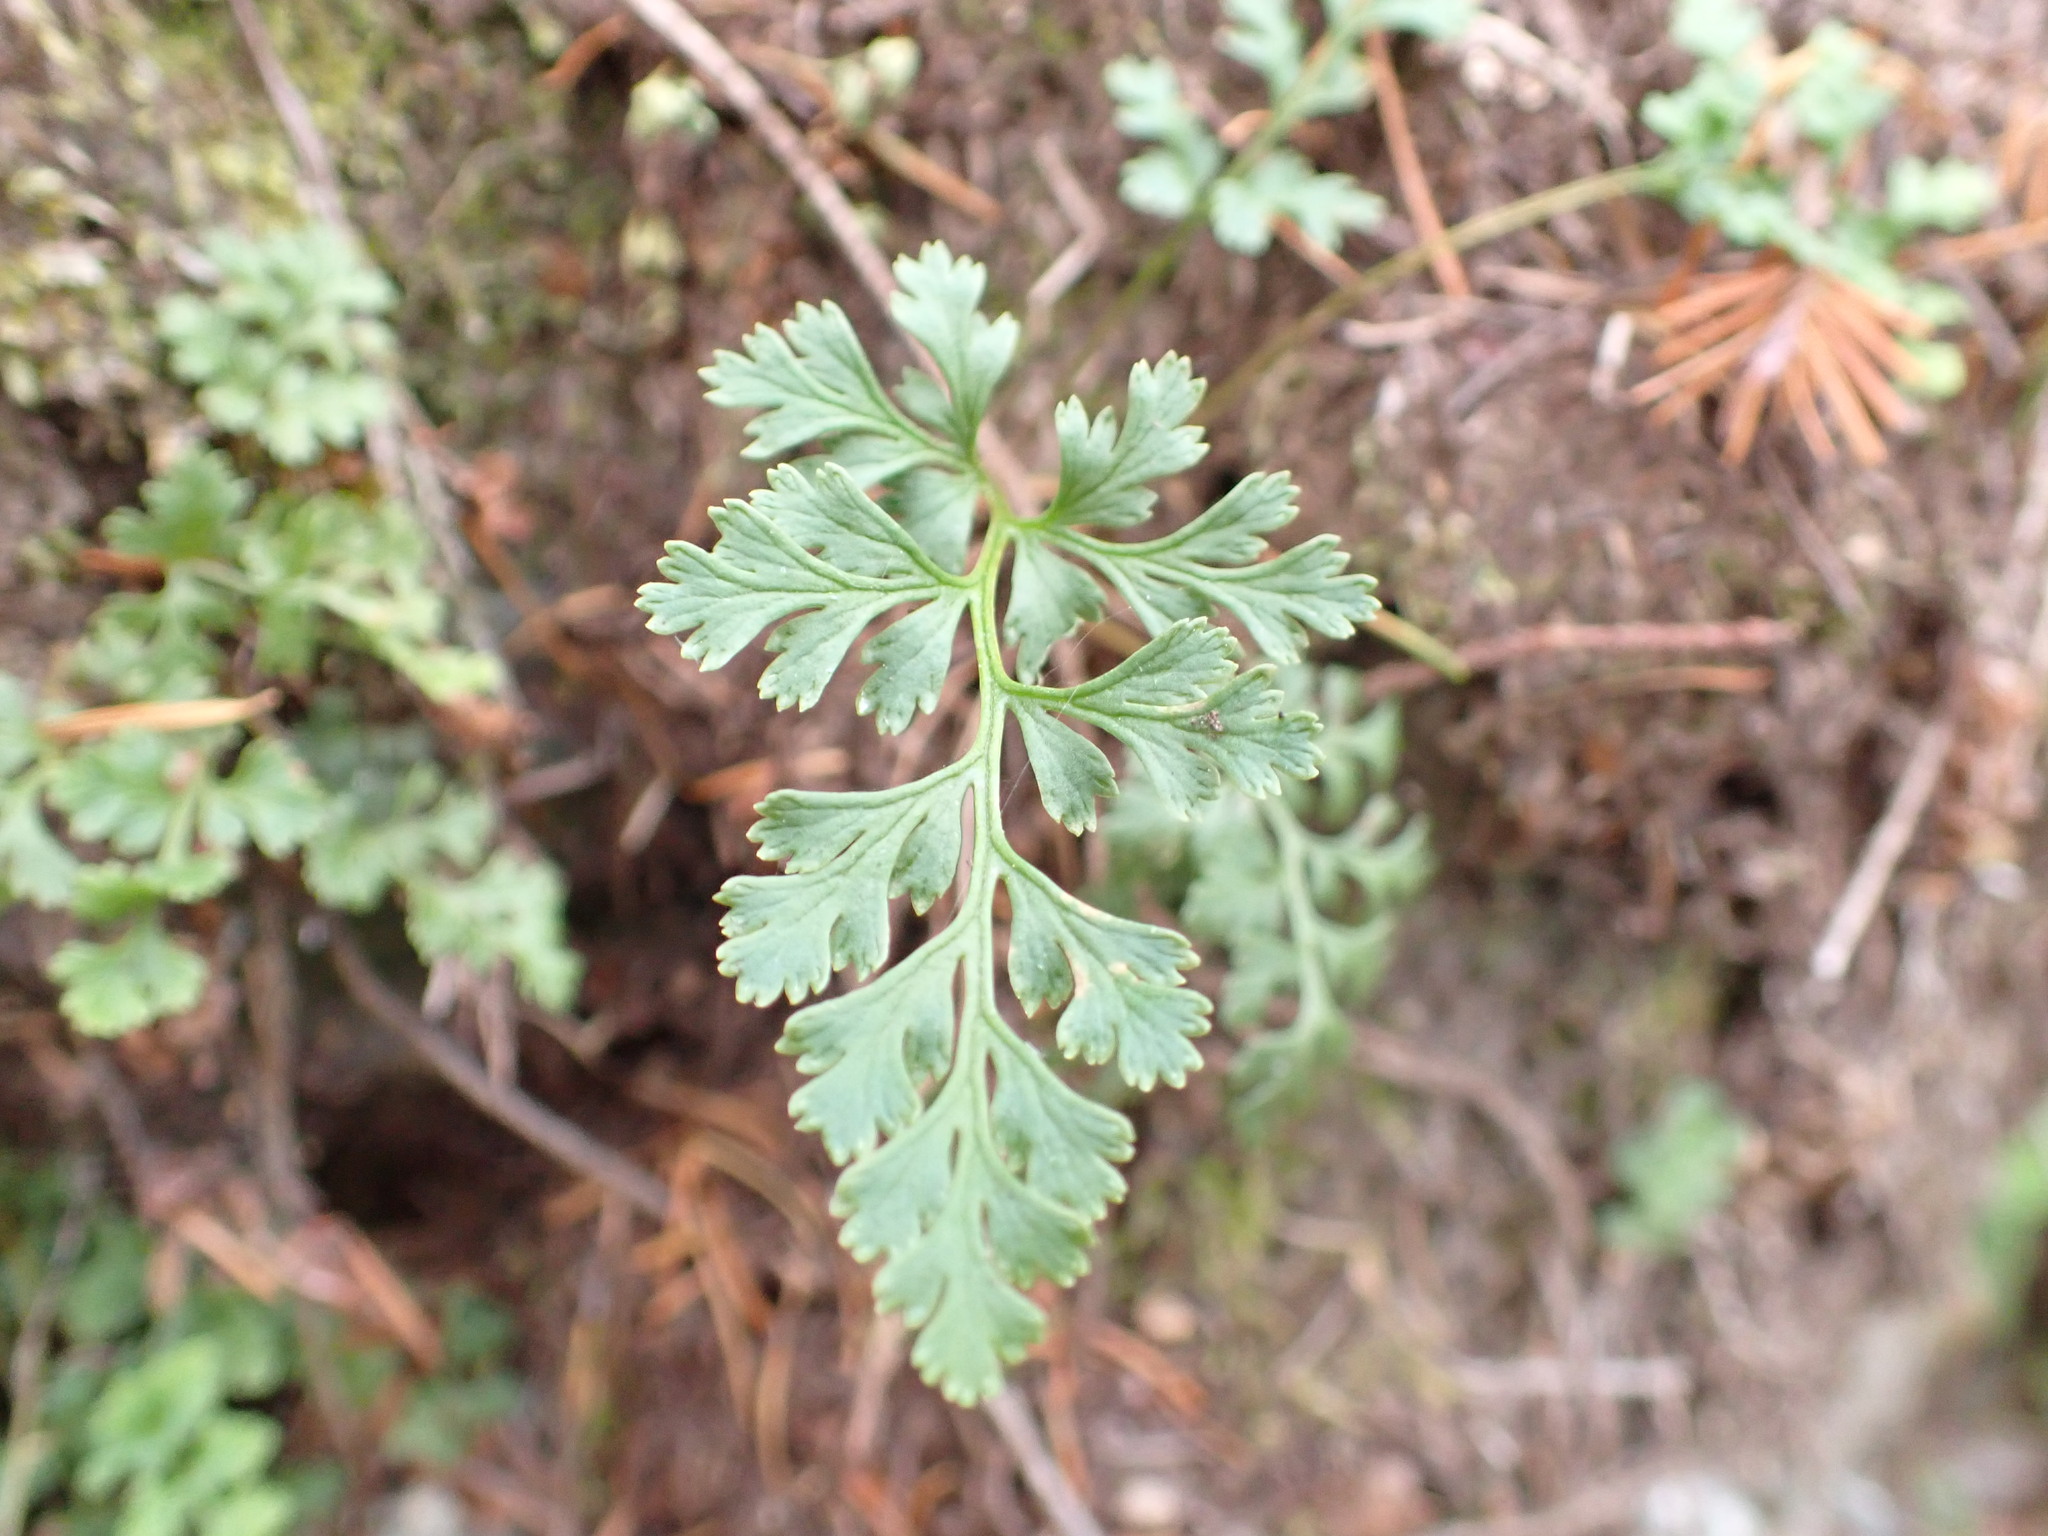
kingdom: Plantae
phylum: Tracheophyta
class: Polypodiopsida
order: Polypodiales
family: Pteridaceae
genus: Cryptogramma
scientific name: Cryptogramma acrostichoides
